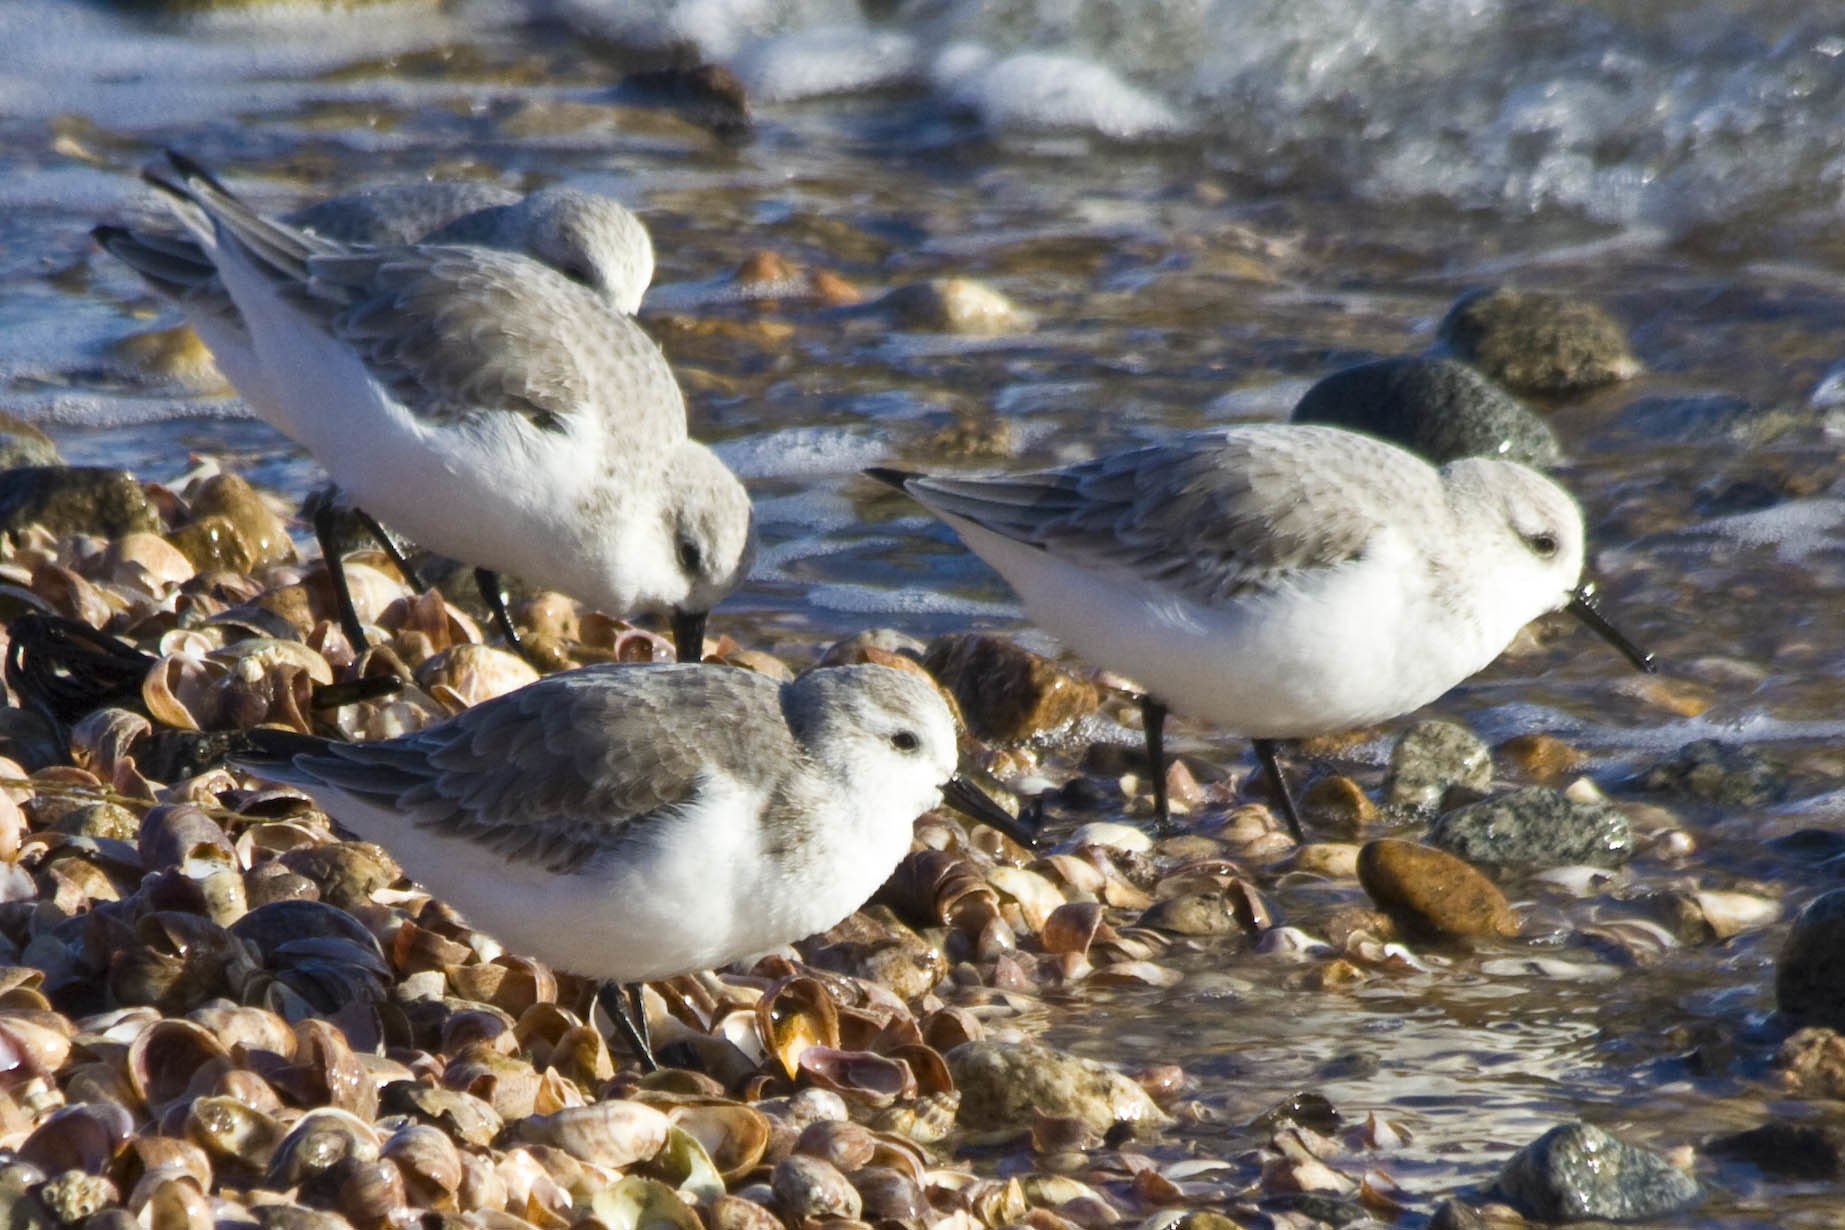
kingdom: Animalia
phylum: Chordata
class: Aves
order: Charadriiformes
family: Scolopacidae
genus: Calidris
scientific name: Calidris alba
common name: Sanderling
